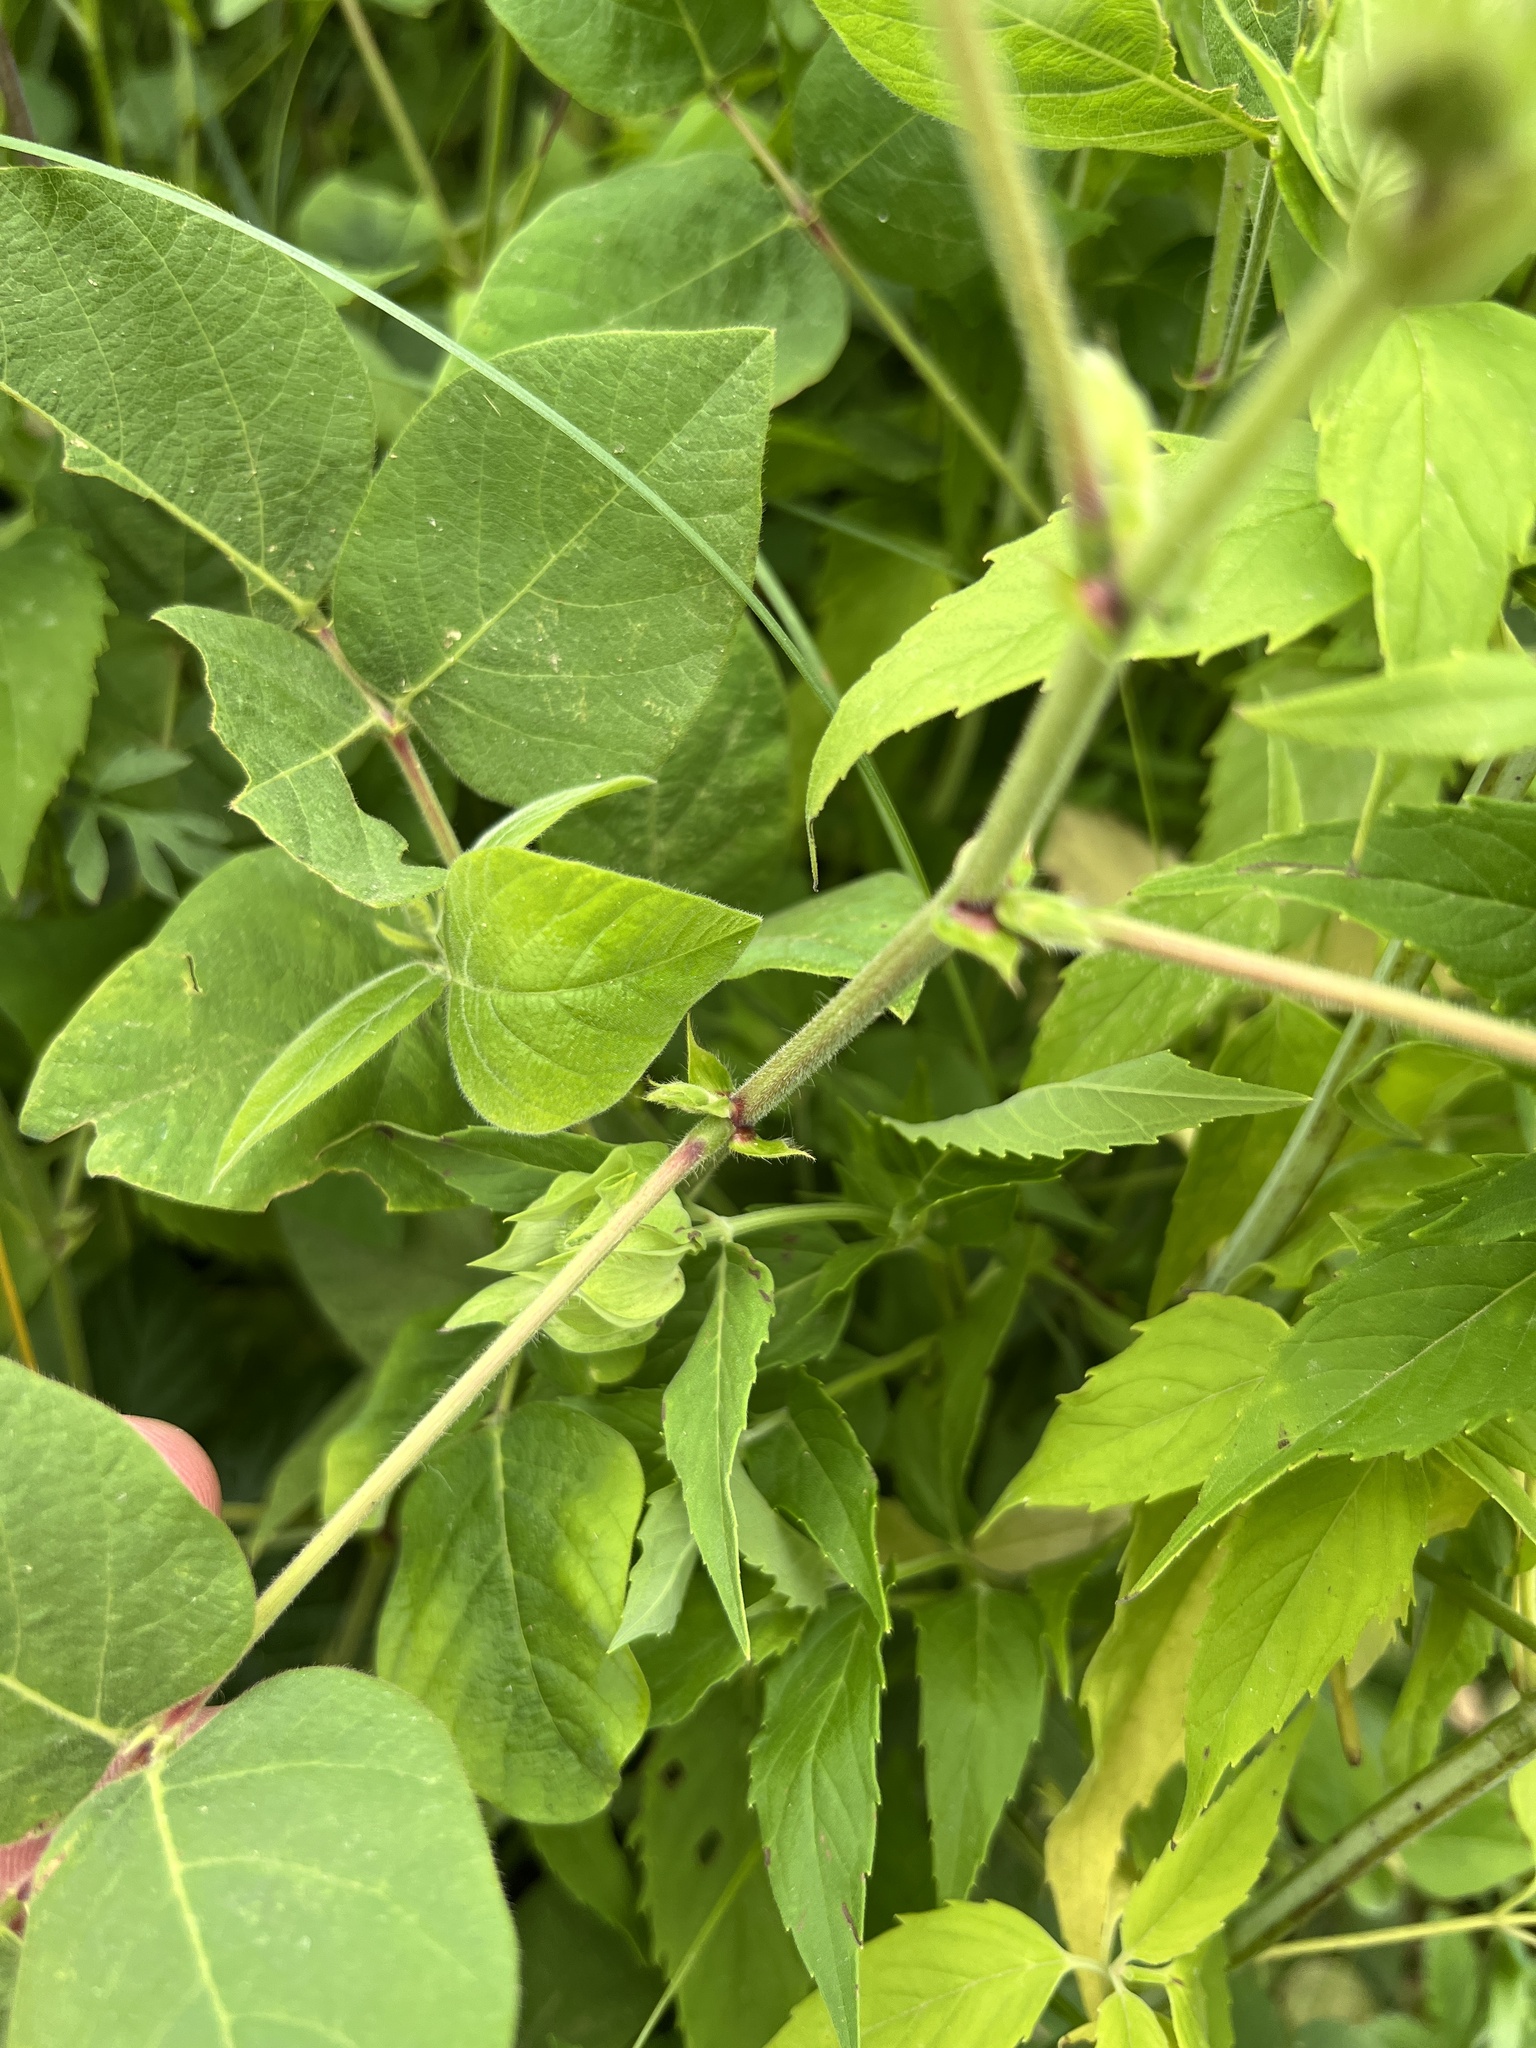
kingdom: Plantae
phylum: Tracheophyta
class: Magnoliopsida
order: Fabales
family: Fabaceae
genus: Desmodium
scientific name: Desmodium canescens
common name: Hoary tick-clover
